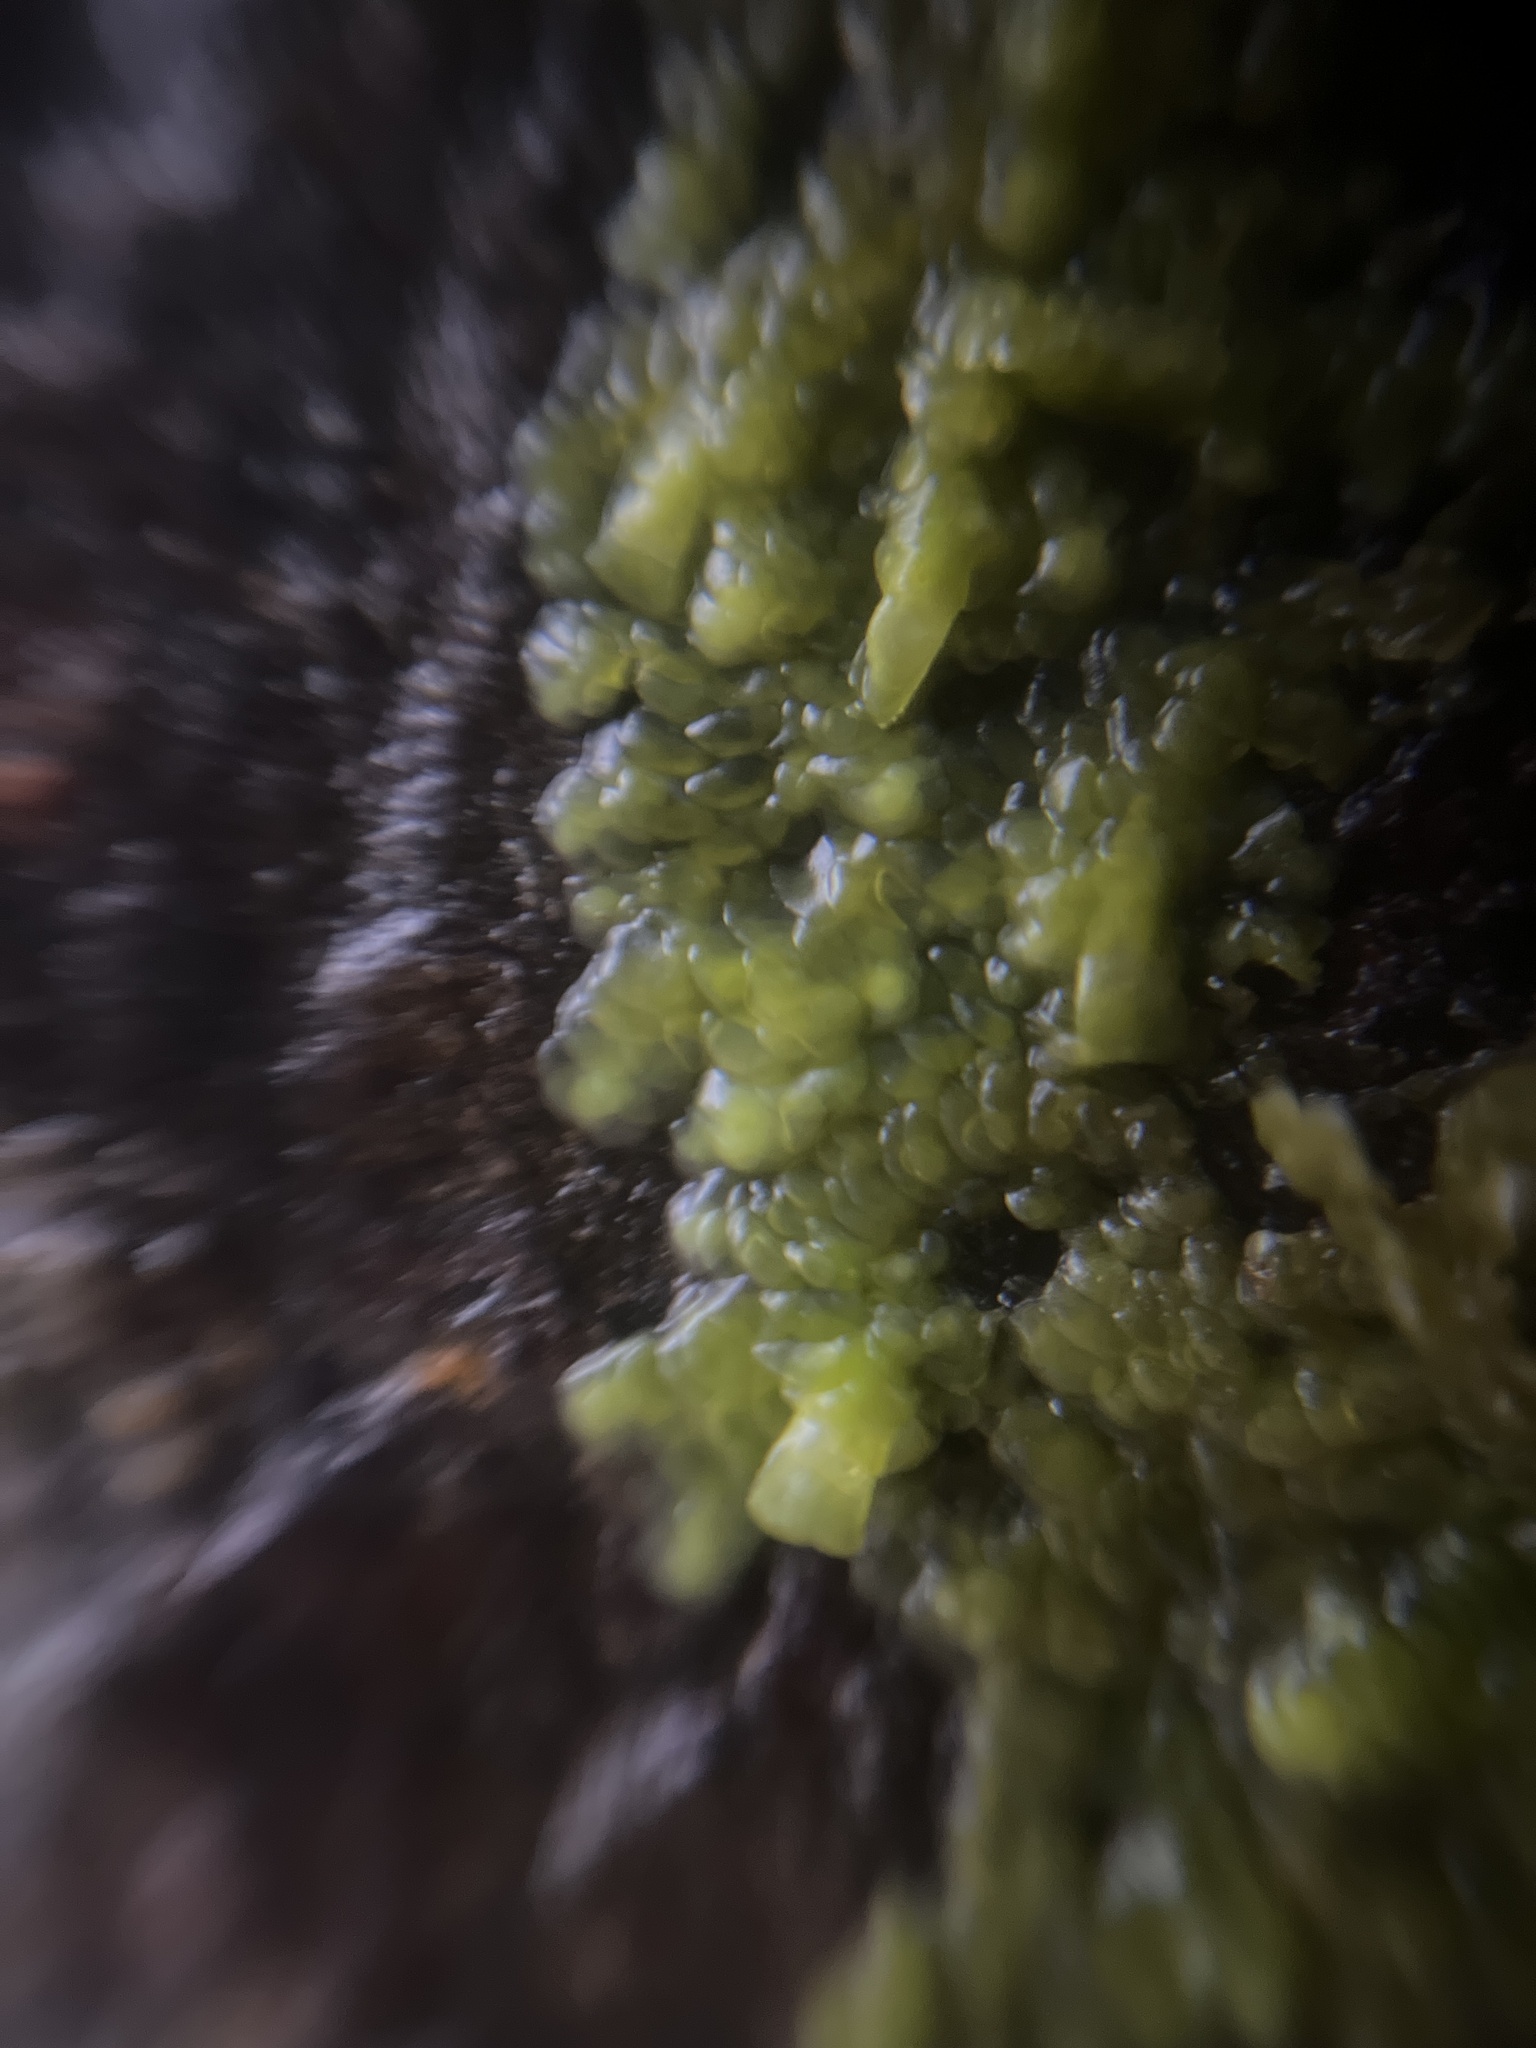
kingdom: Plantae
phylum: Marchantiophyta
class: Jungermanniopsida
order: Porellales
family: Radulaceae
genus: Radula
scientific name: Radula complanata
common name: Flat-leaved scalewort
